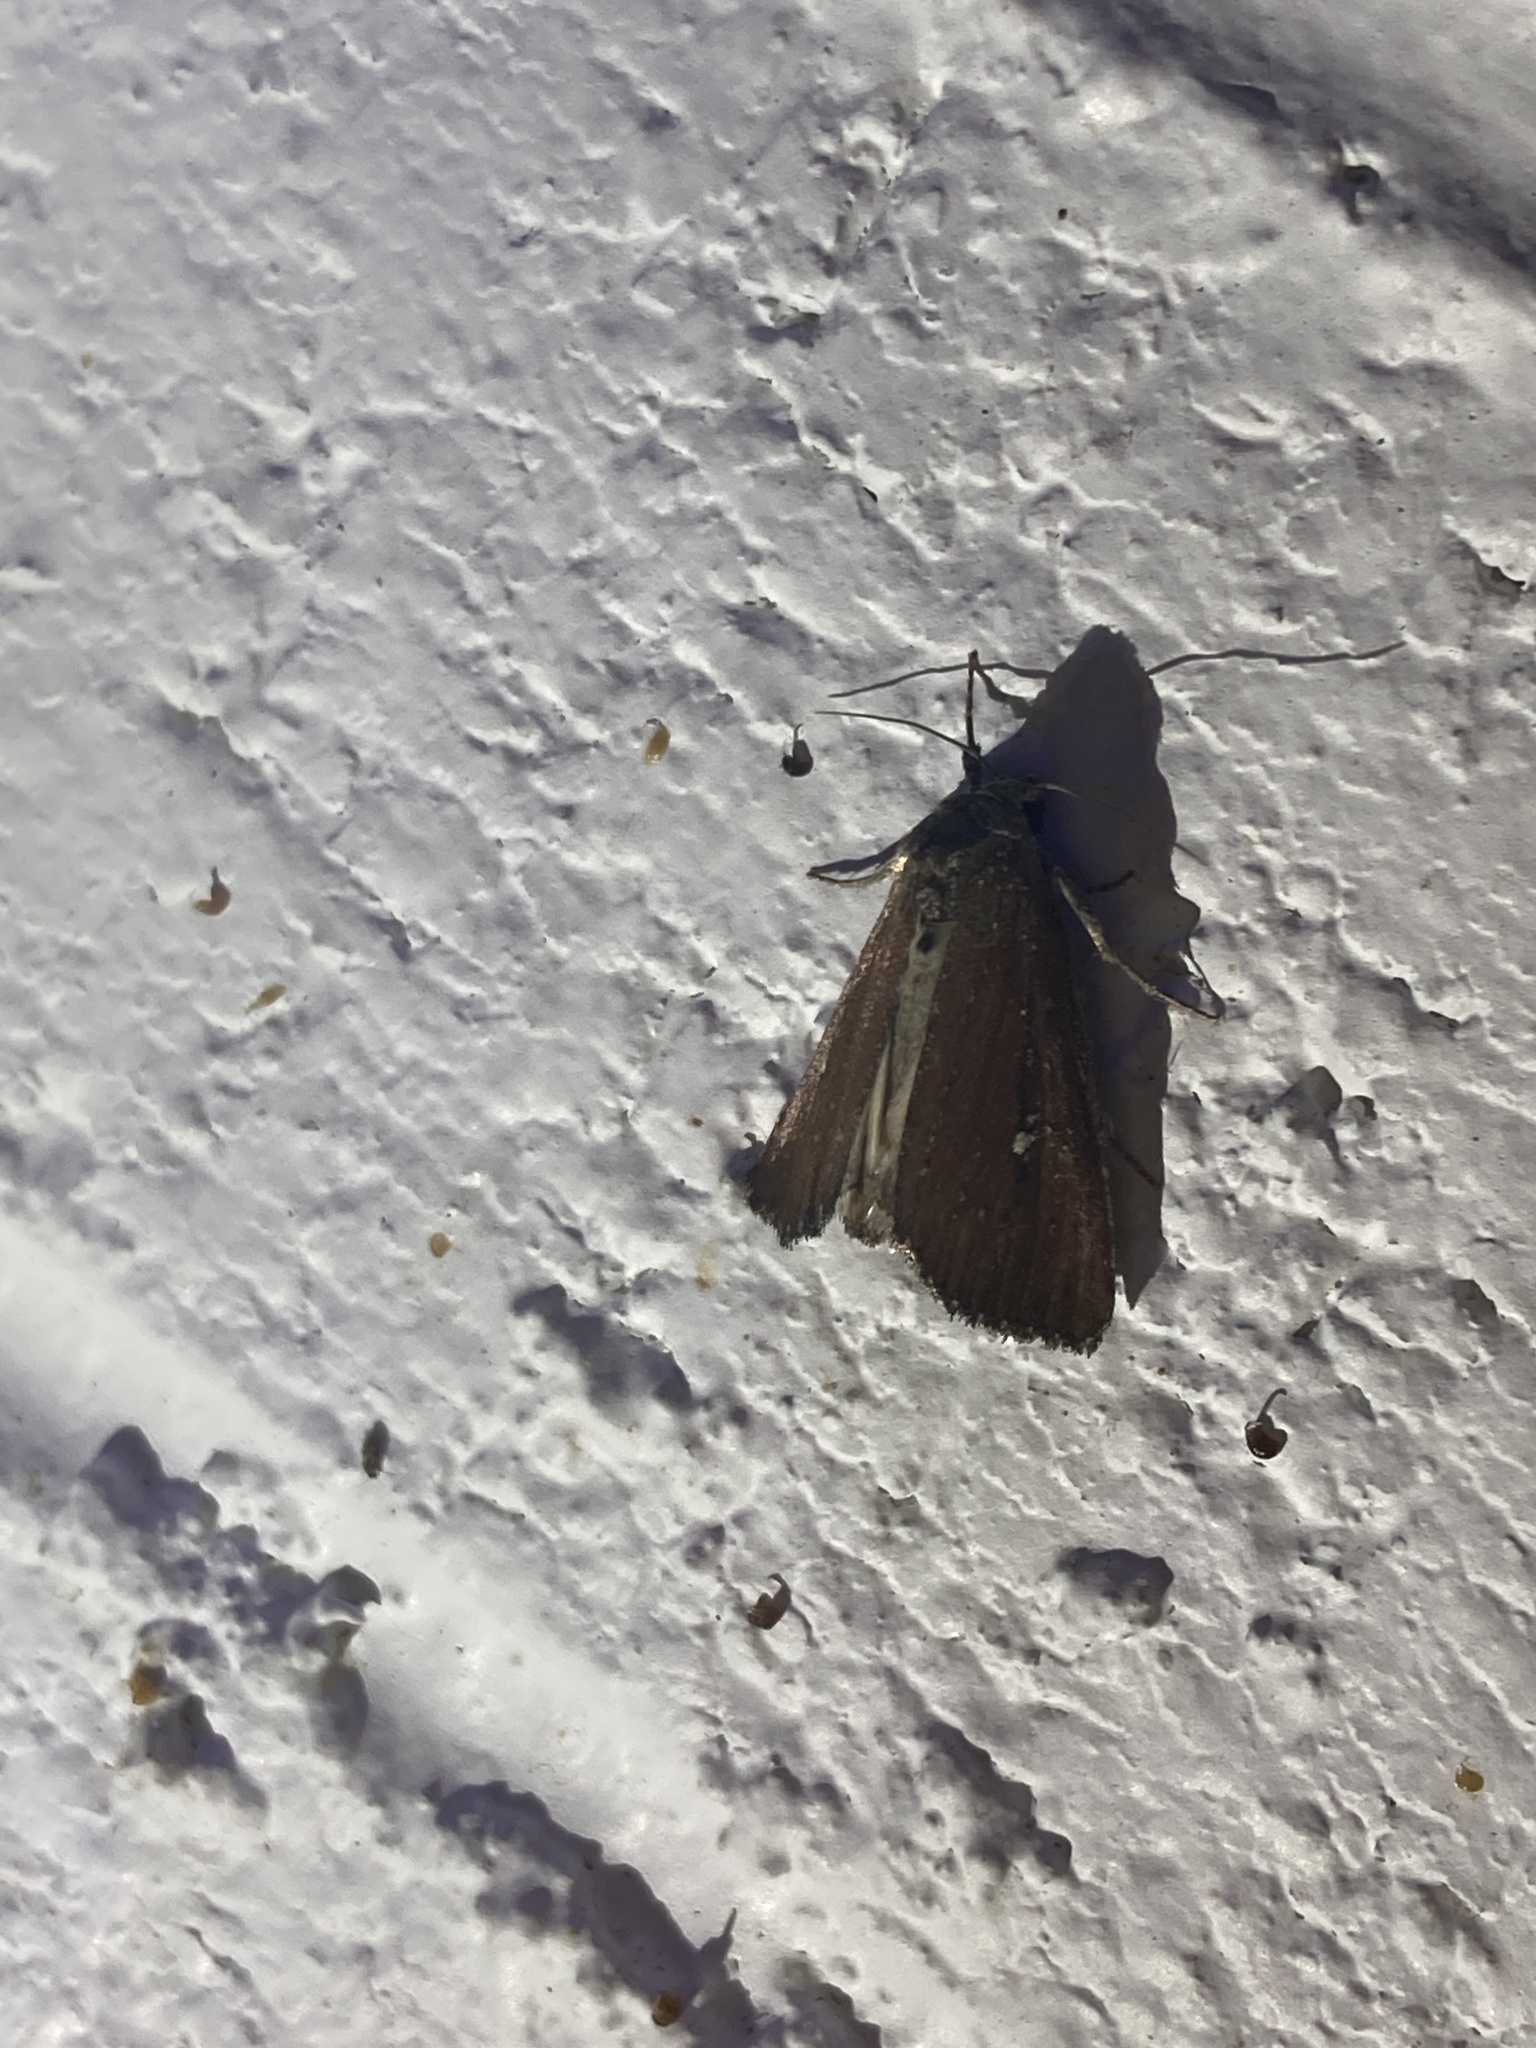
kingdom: Animalia
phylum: Arthropoda
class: Insecta
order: Lepidoptera
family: Noctuidae
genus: Condica
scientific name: Condica videns
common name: White-dotted groundling
